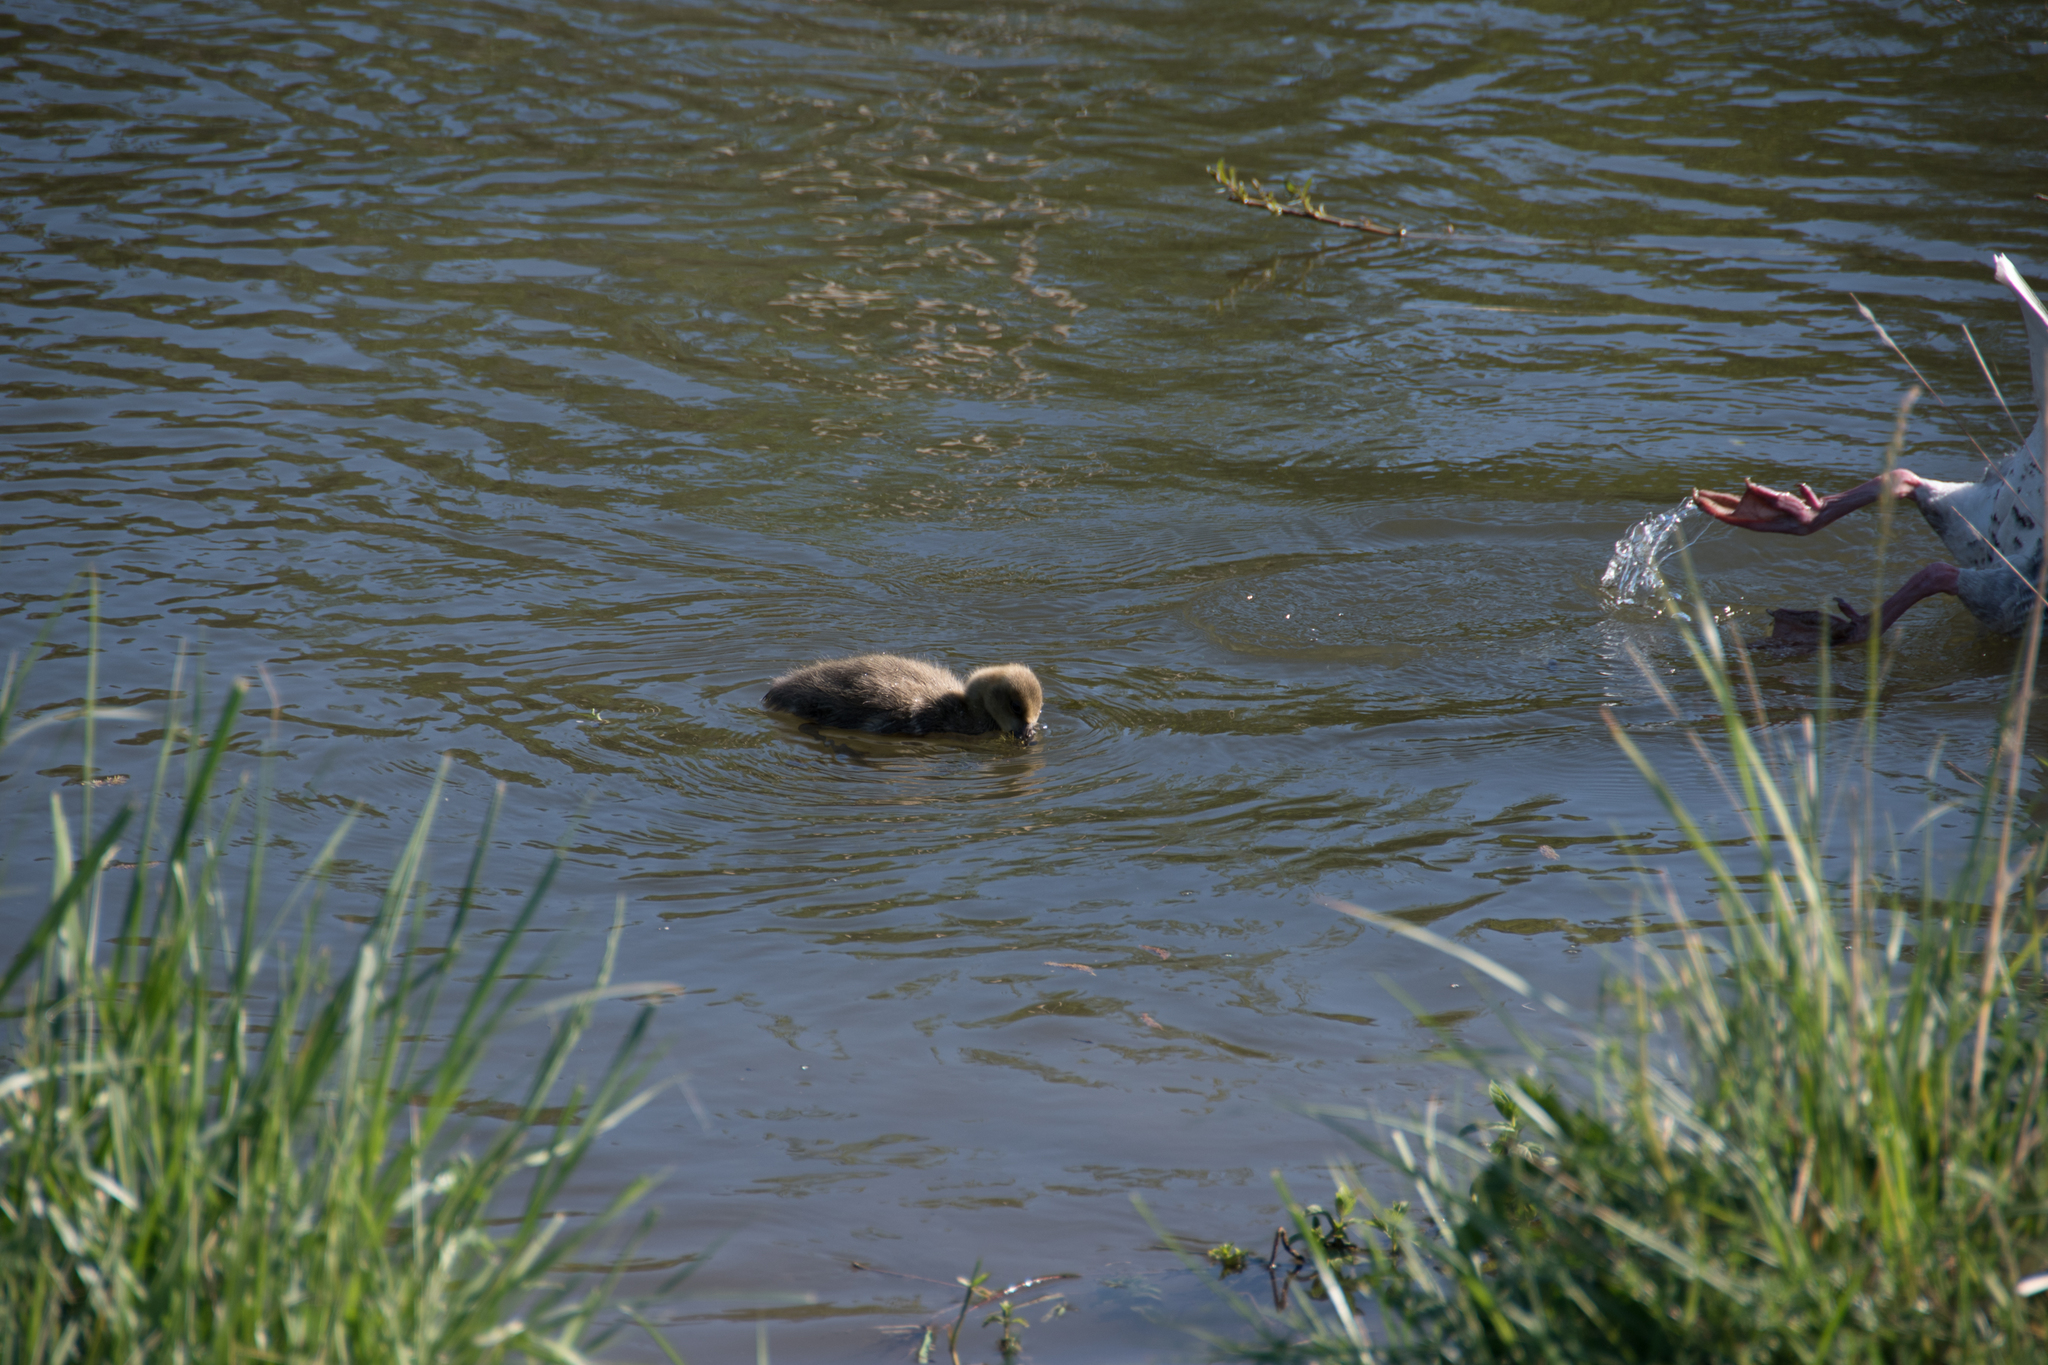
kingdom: Animalia
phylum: Chordata
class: Aves
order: Anseriformes
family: Anatidae
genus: Anser
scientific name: Anser anser
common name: Greylag goose
